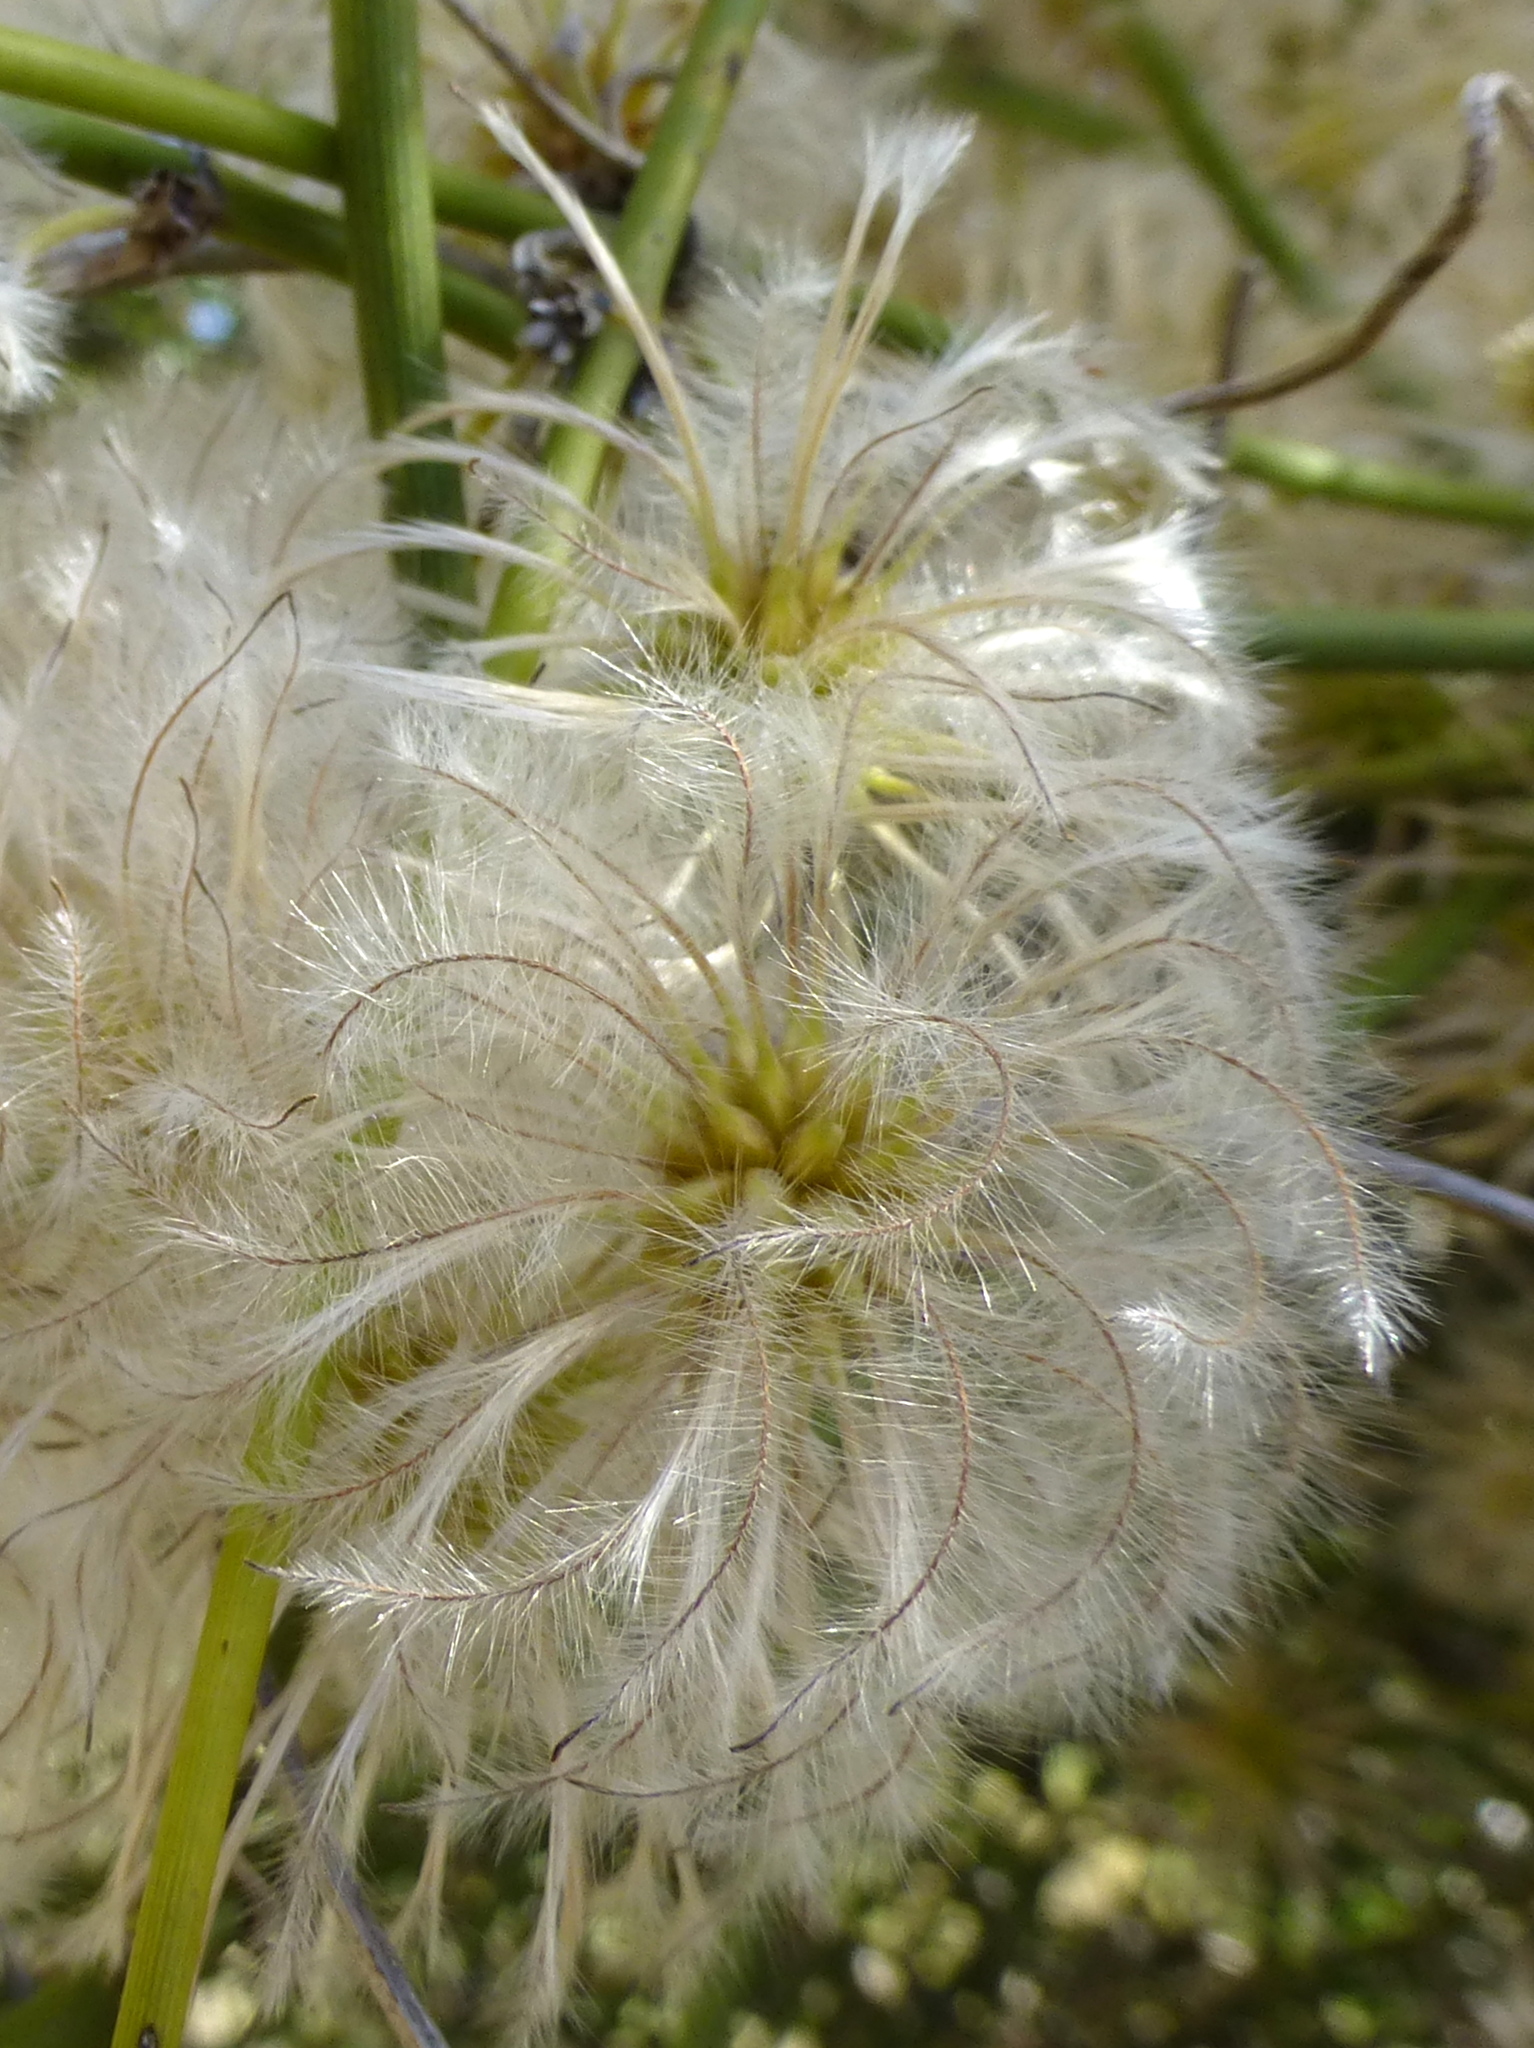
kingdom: Plantae
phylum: Tracheophyta
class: Magnoliopsida
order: Ranunculales
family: Ranunculaceae
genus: Clematis
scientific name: Clematis afoliata
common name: Rush-stem clematis
